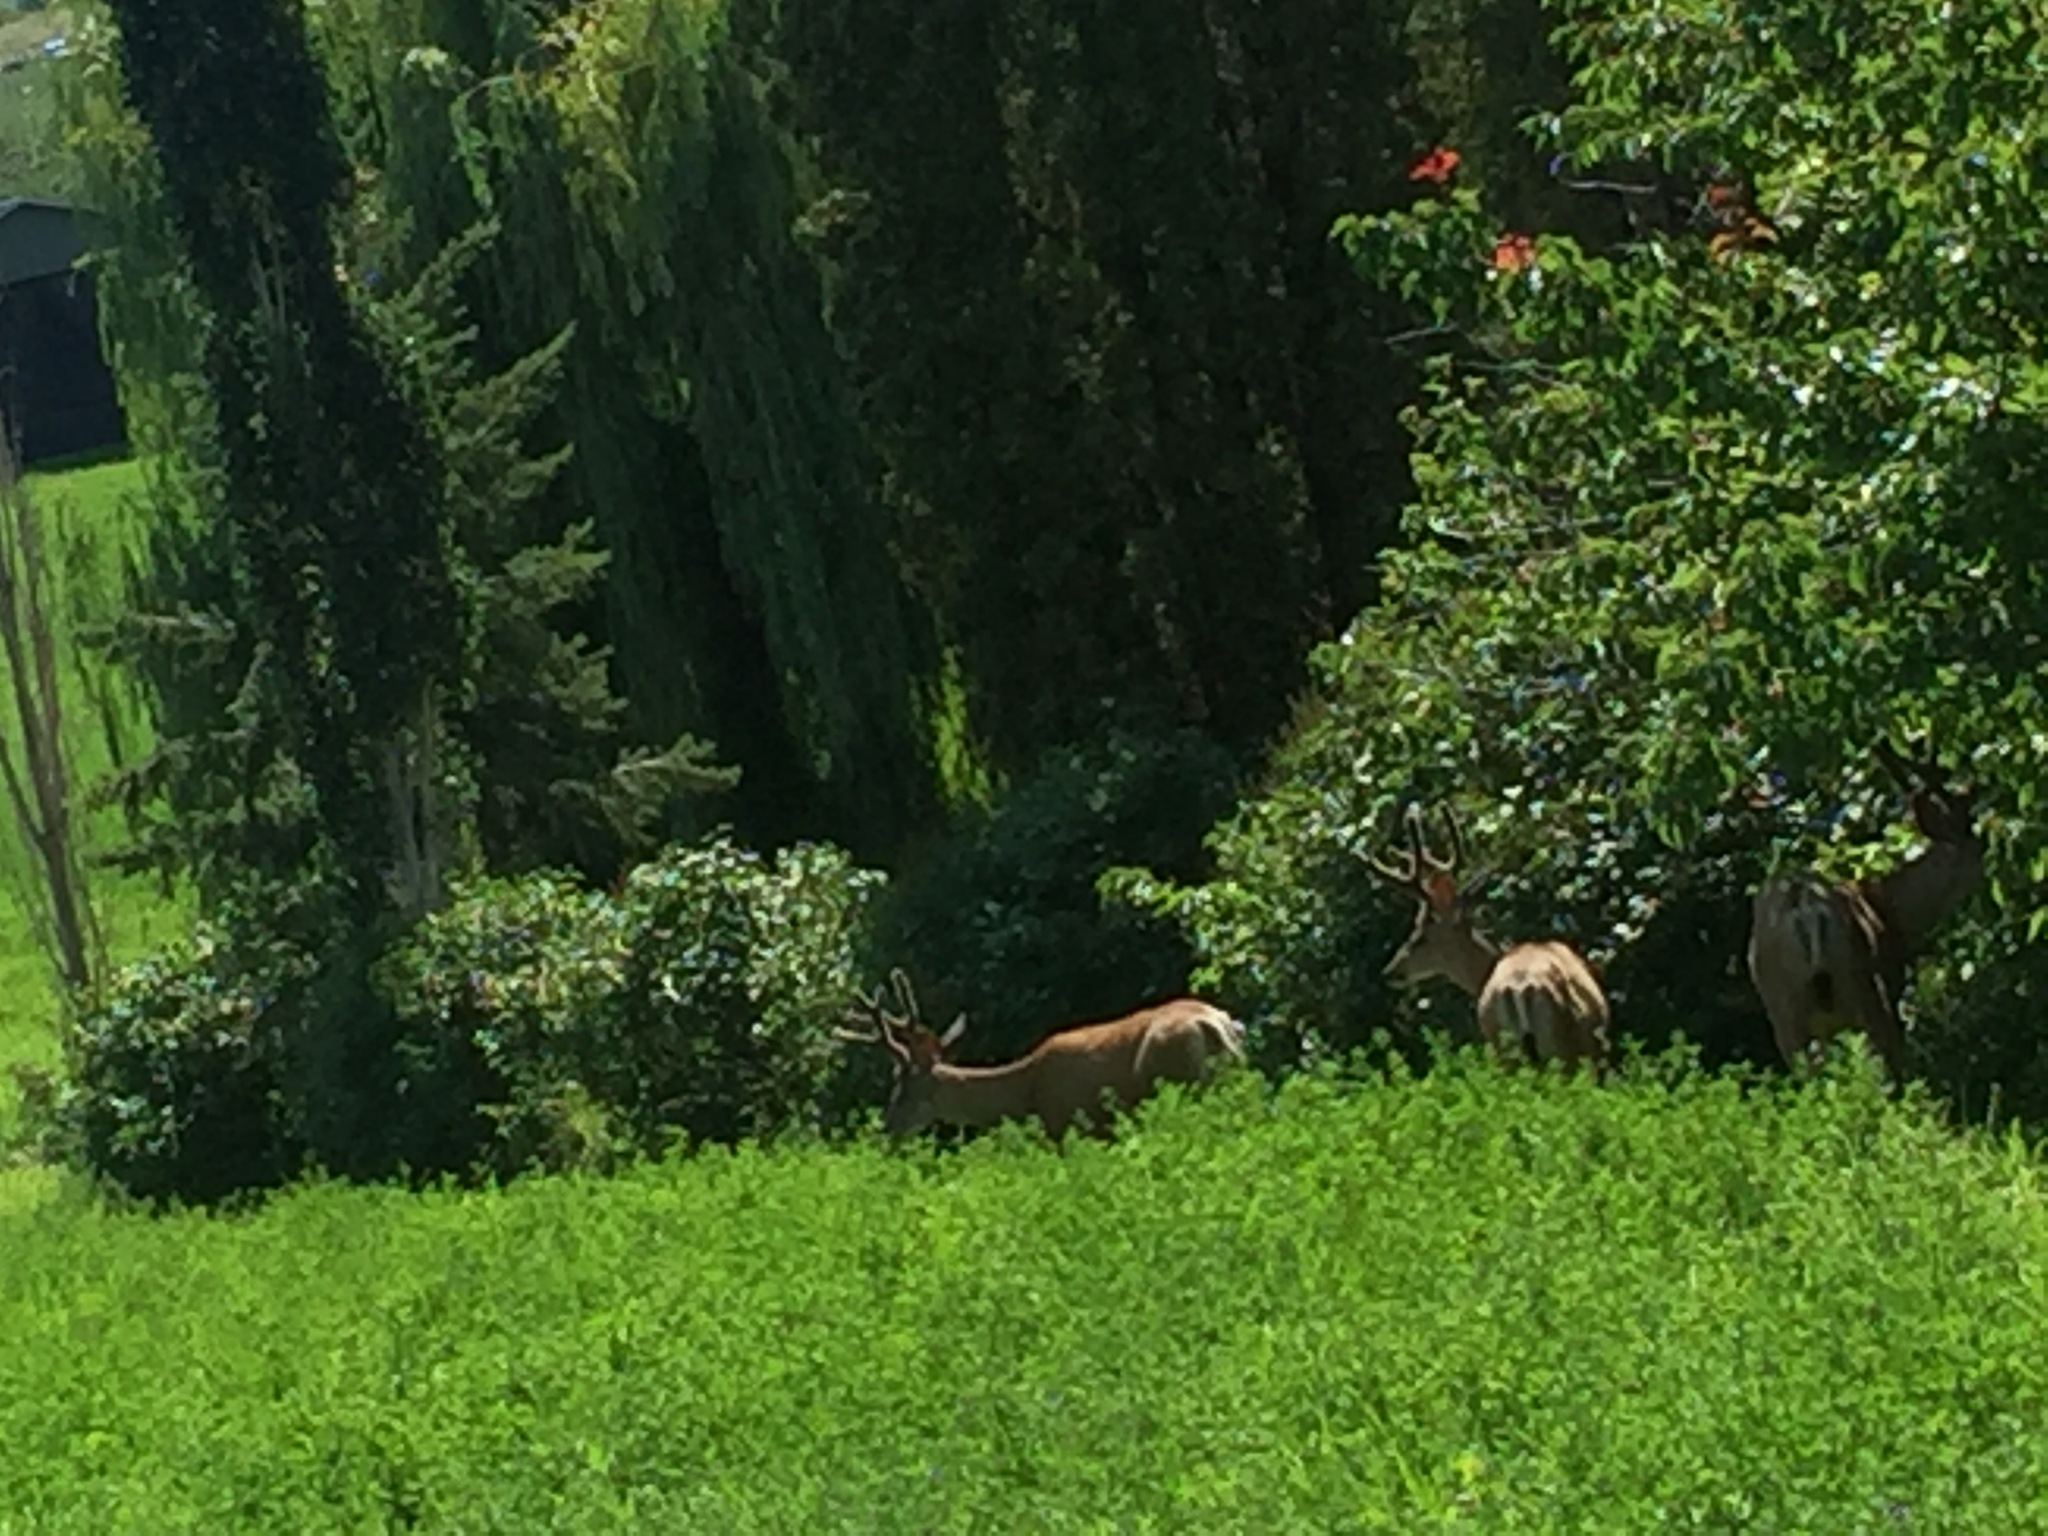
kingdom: Animalia
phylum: Chordata
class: Mammalia
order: Artiodactyla
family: Cervidae
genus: Odocoileus
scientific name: Odocoileus hemionus
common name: Mule deer
